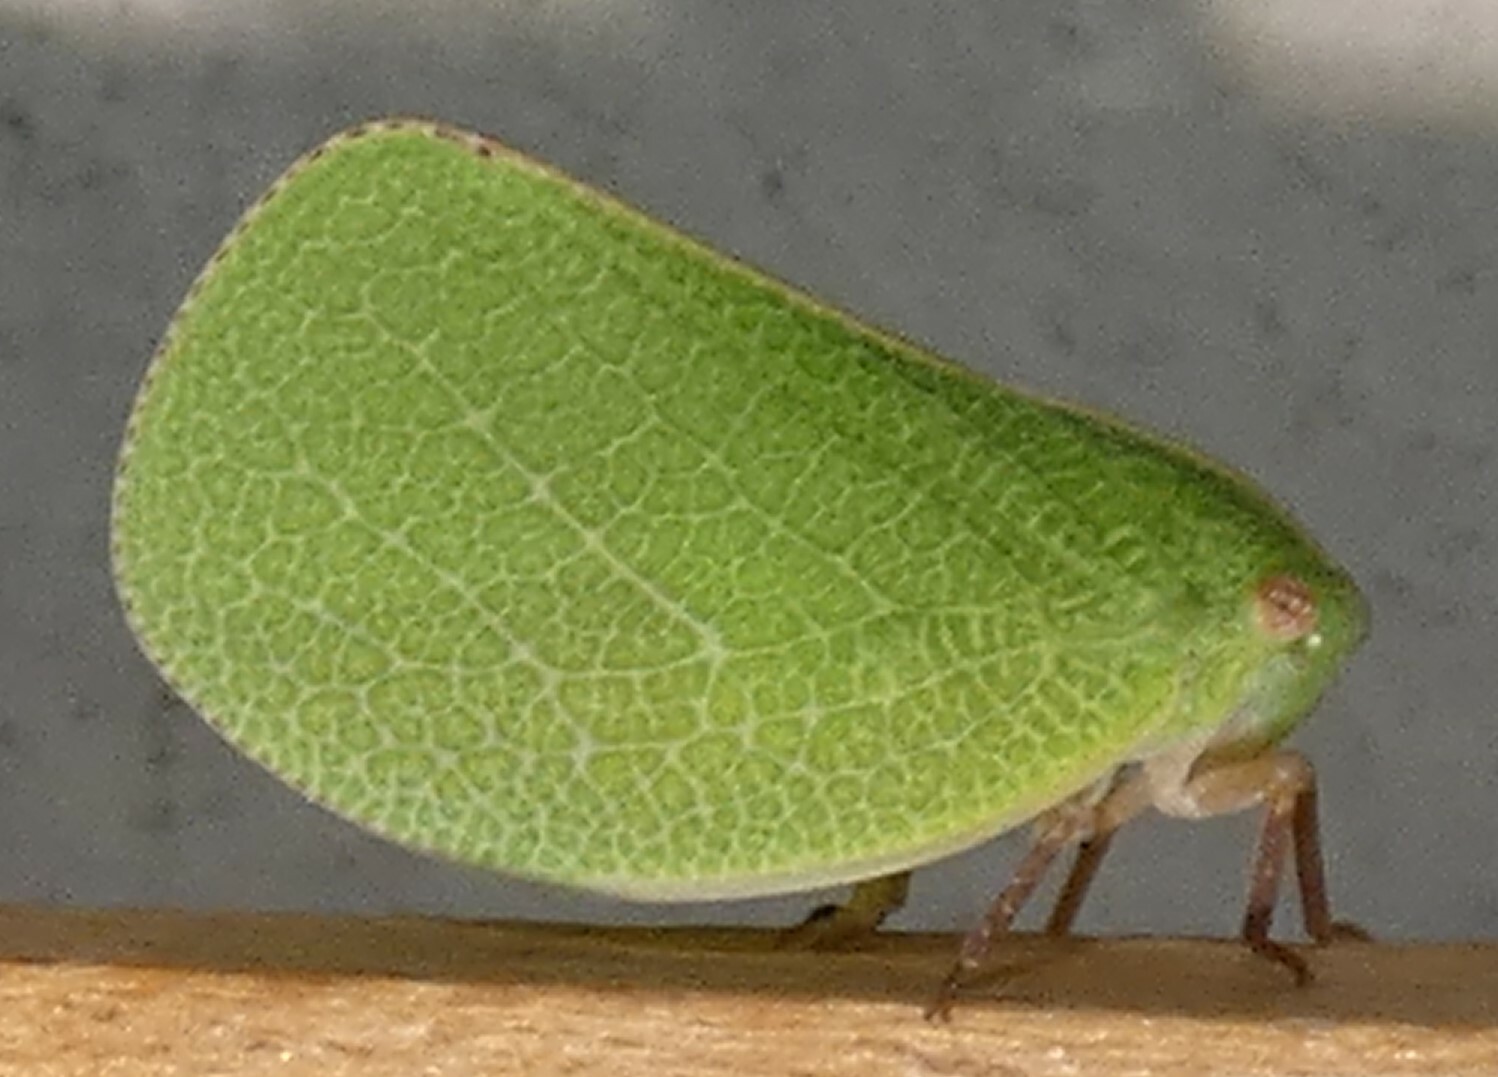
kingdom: Animalia
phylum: Arthropoda
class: Insecta
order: Hemiptera
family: Acanaloniidae
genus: Acanalonia
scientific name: Acanalonia servillei
